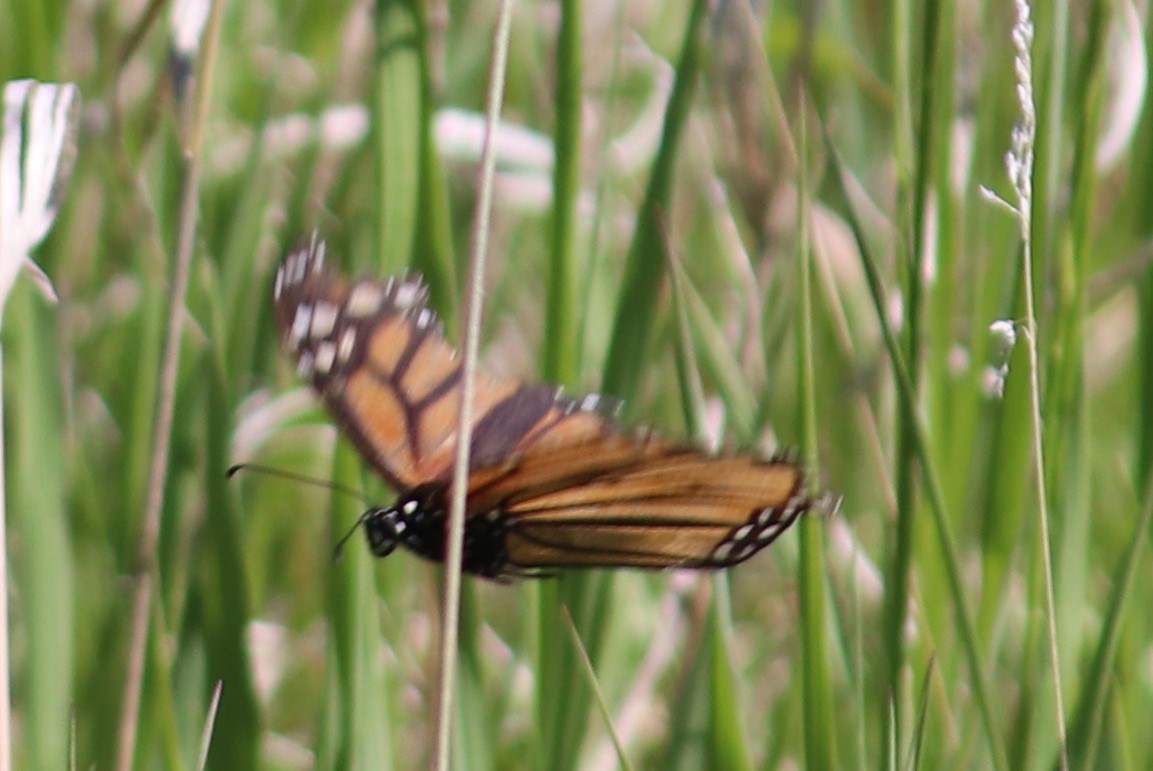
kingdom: Animalia
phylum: Arthropoda
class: Insecta
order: Lepidoptera
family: Nymphalidae
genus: Danaus
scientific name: Danaus plexippus
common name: Monarch
